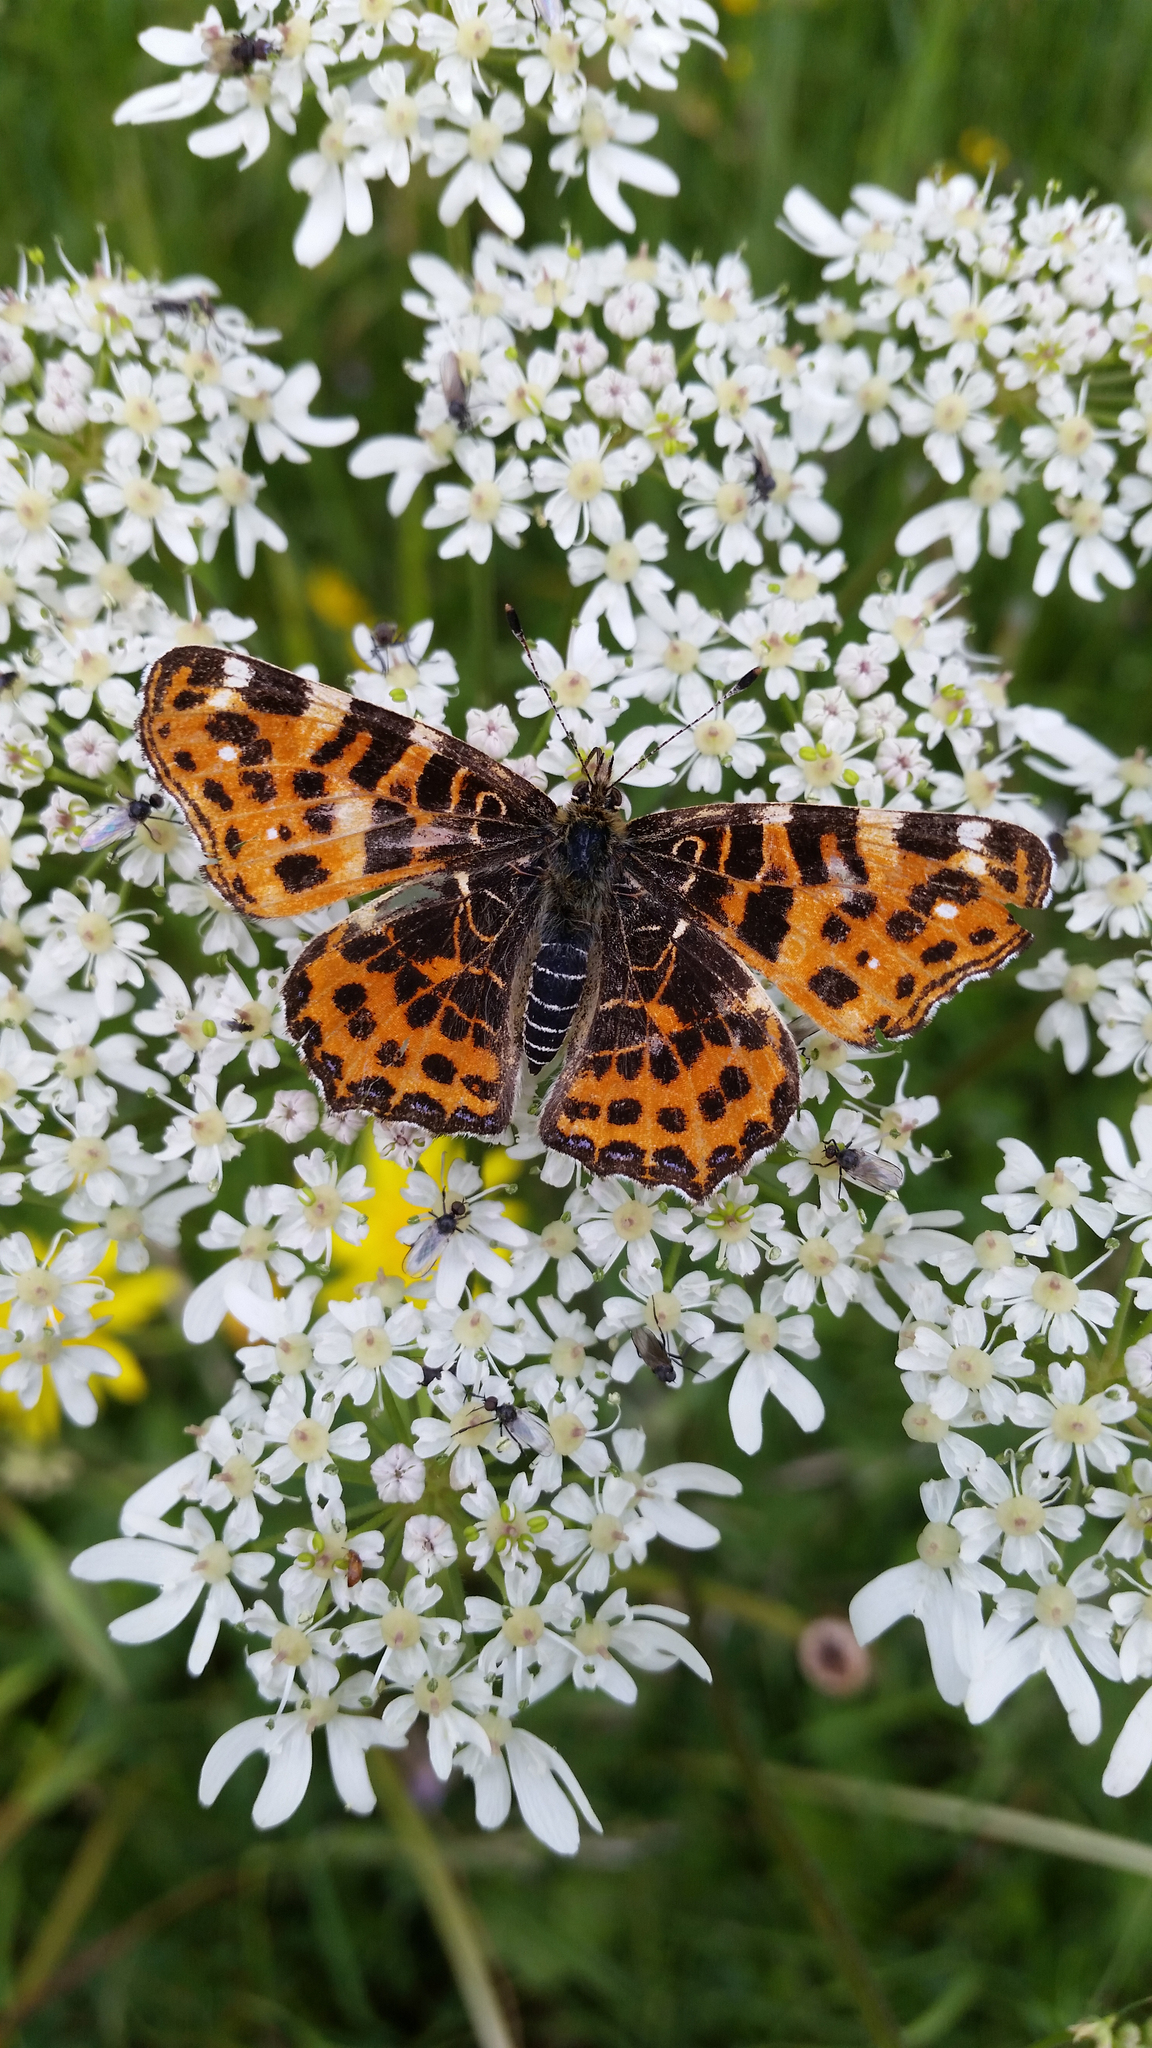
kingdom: Animalia
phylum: Arthropoda
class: Insecta
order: Lepidoptera
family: Nymphalidae
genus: Araschnia
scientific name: Araschnia levana
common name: Map butterfly
